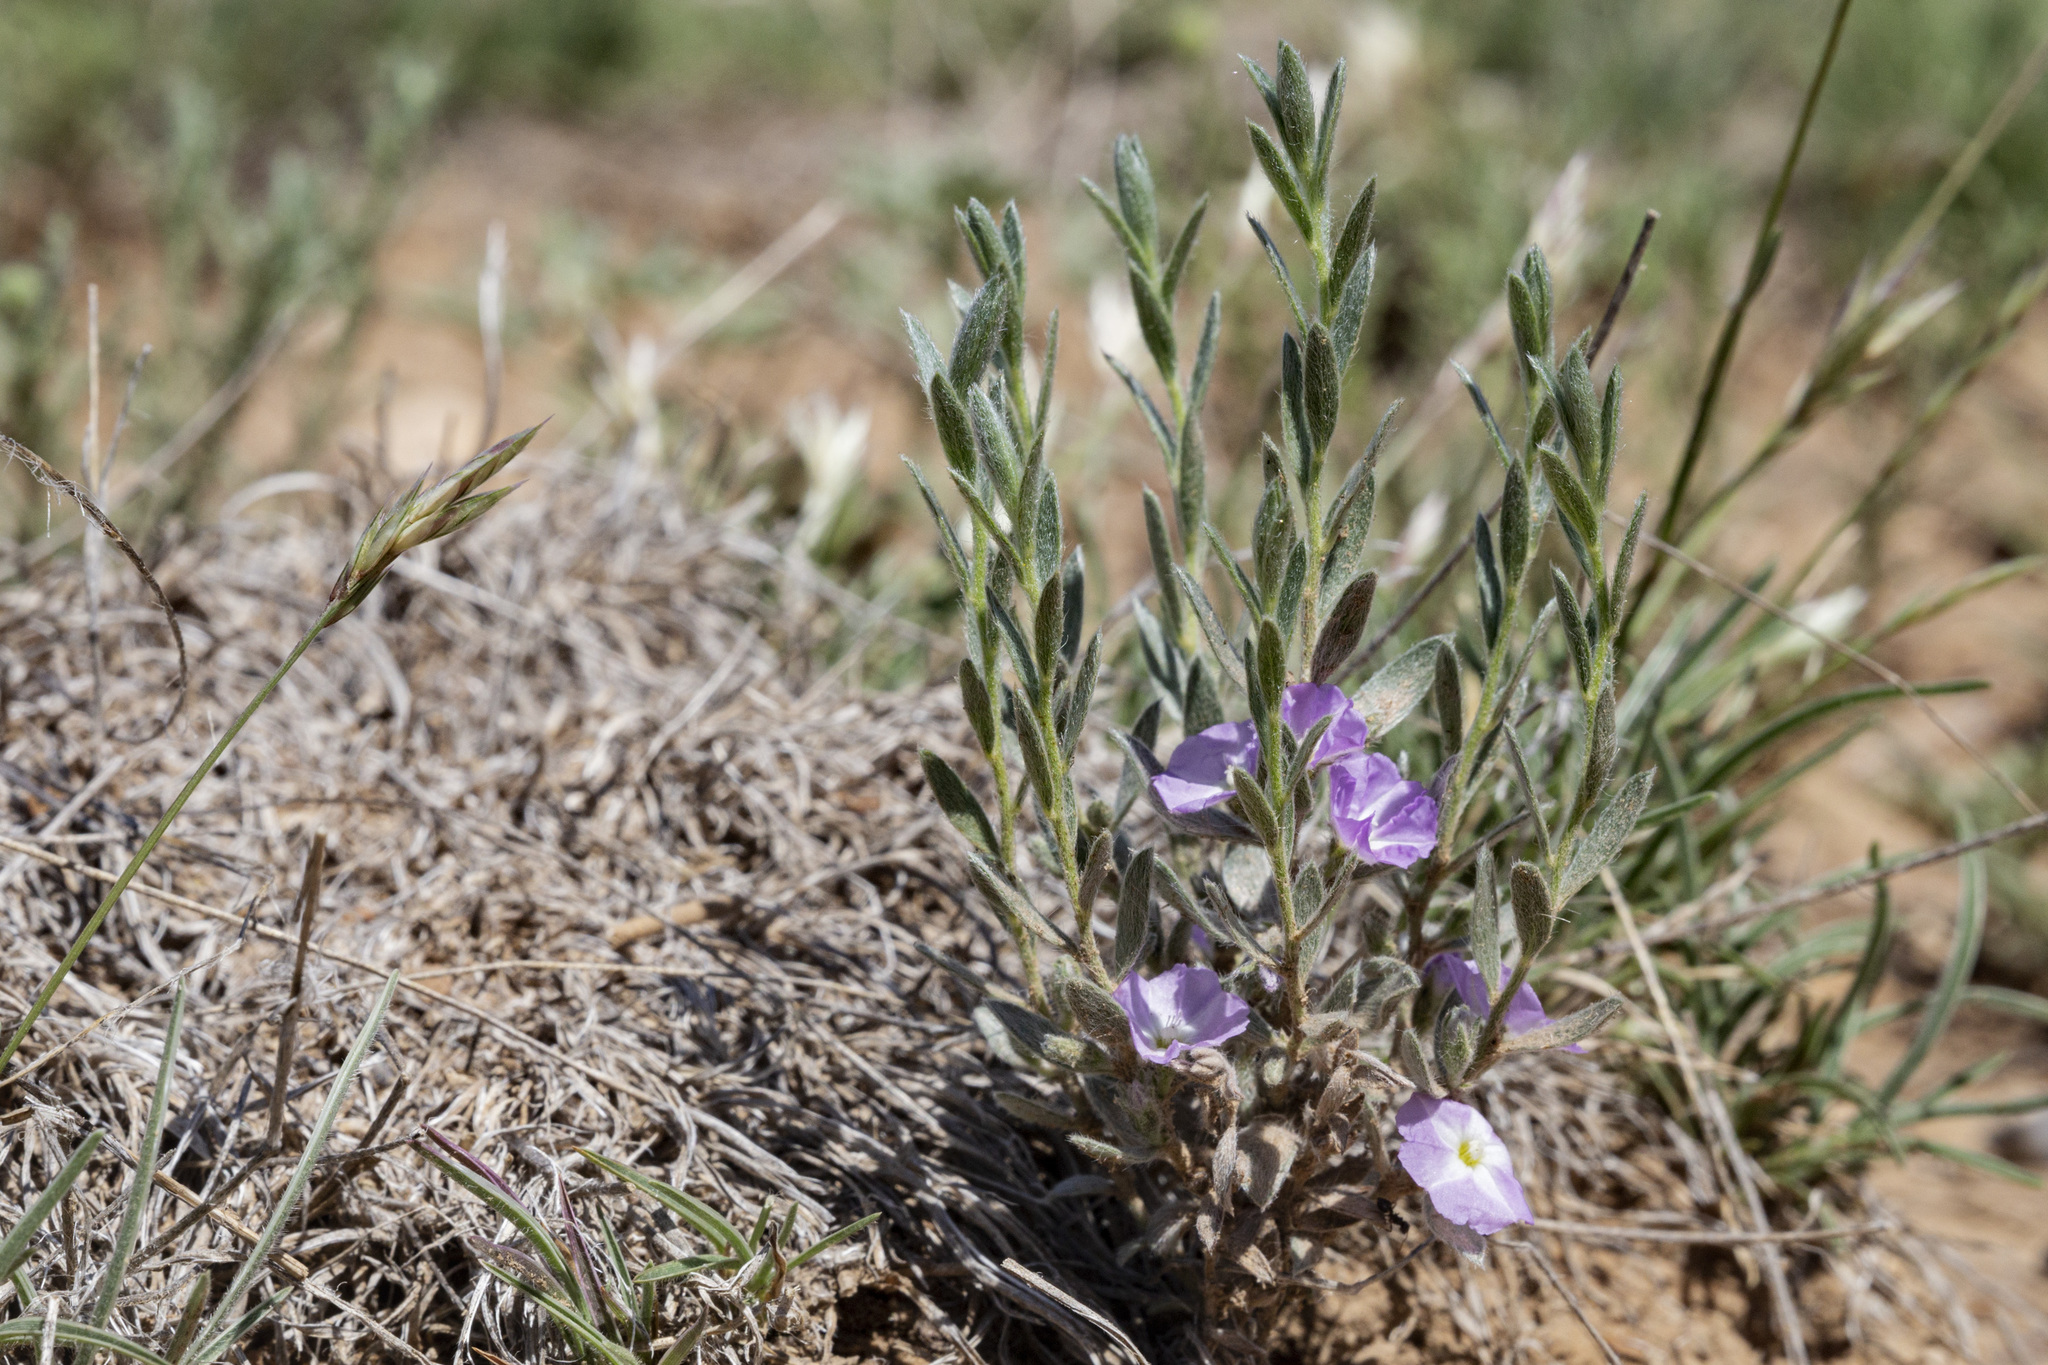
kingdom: Plantae
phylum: Tracheophyta
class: Magnoliopsida
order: Solanales
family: Convolvulaceae
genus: Evolvulus
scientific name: Evolvulus nuttallianus
